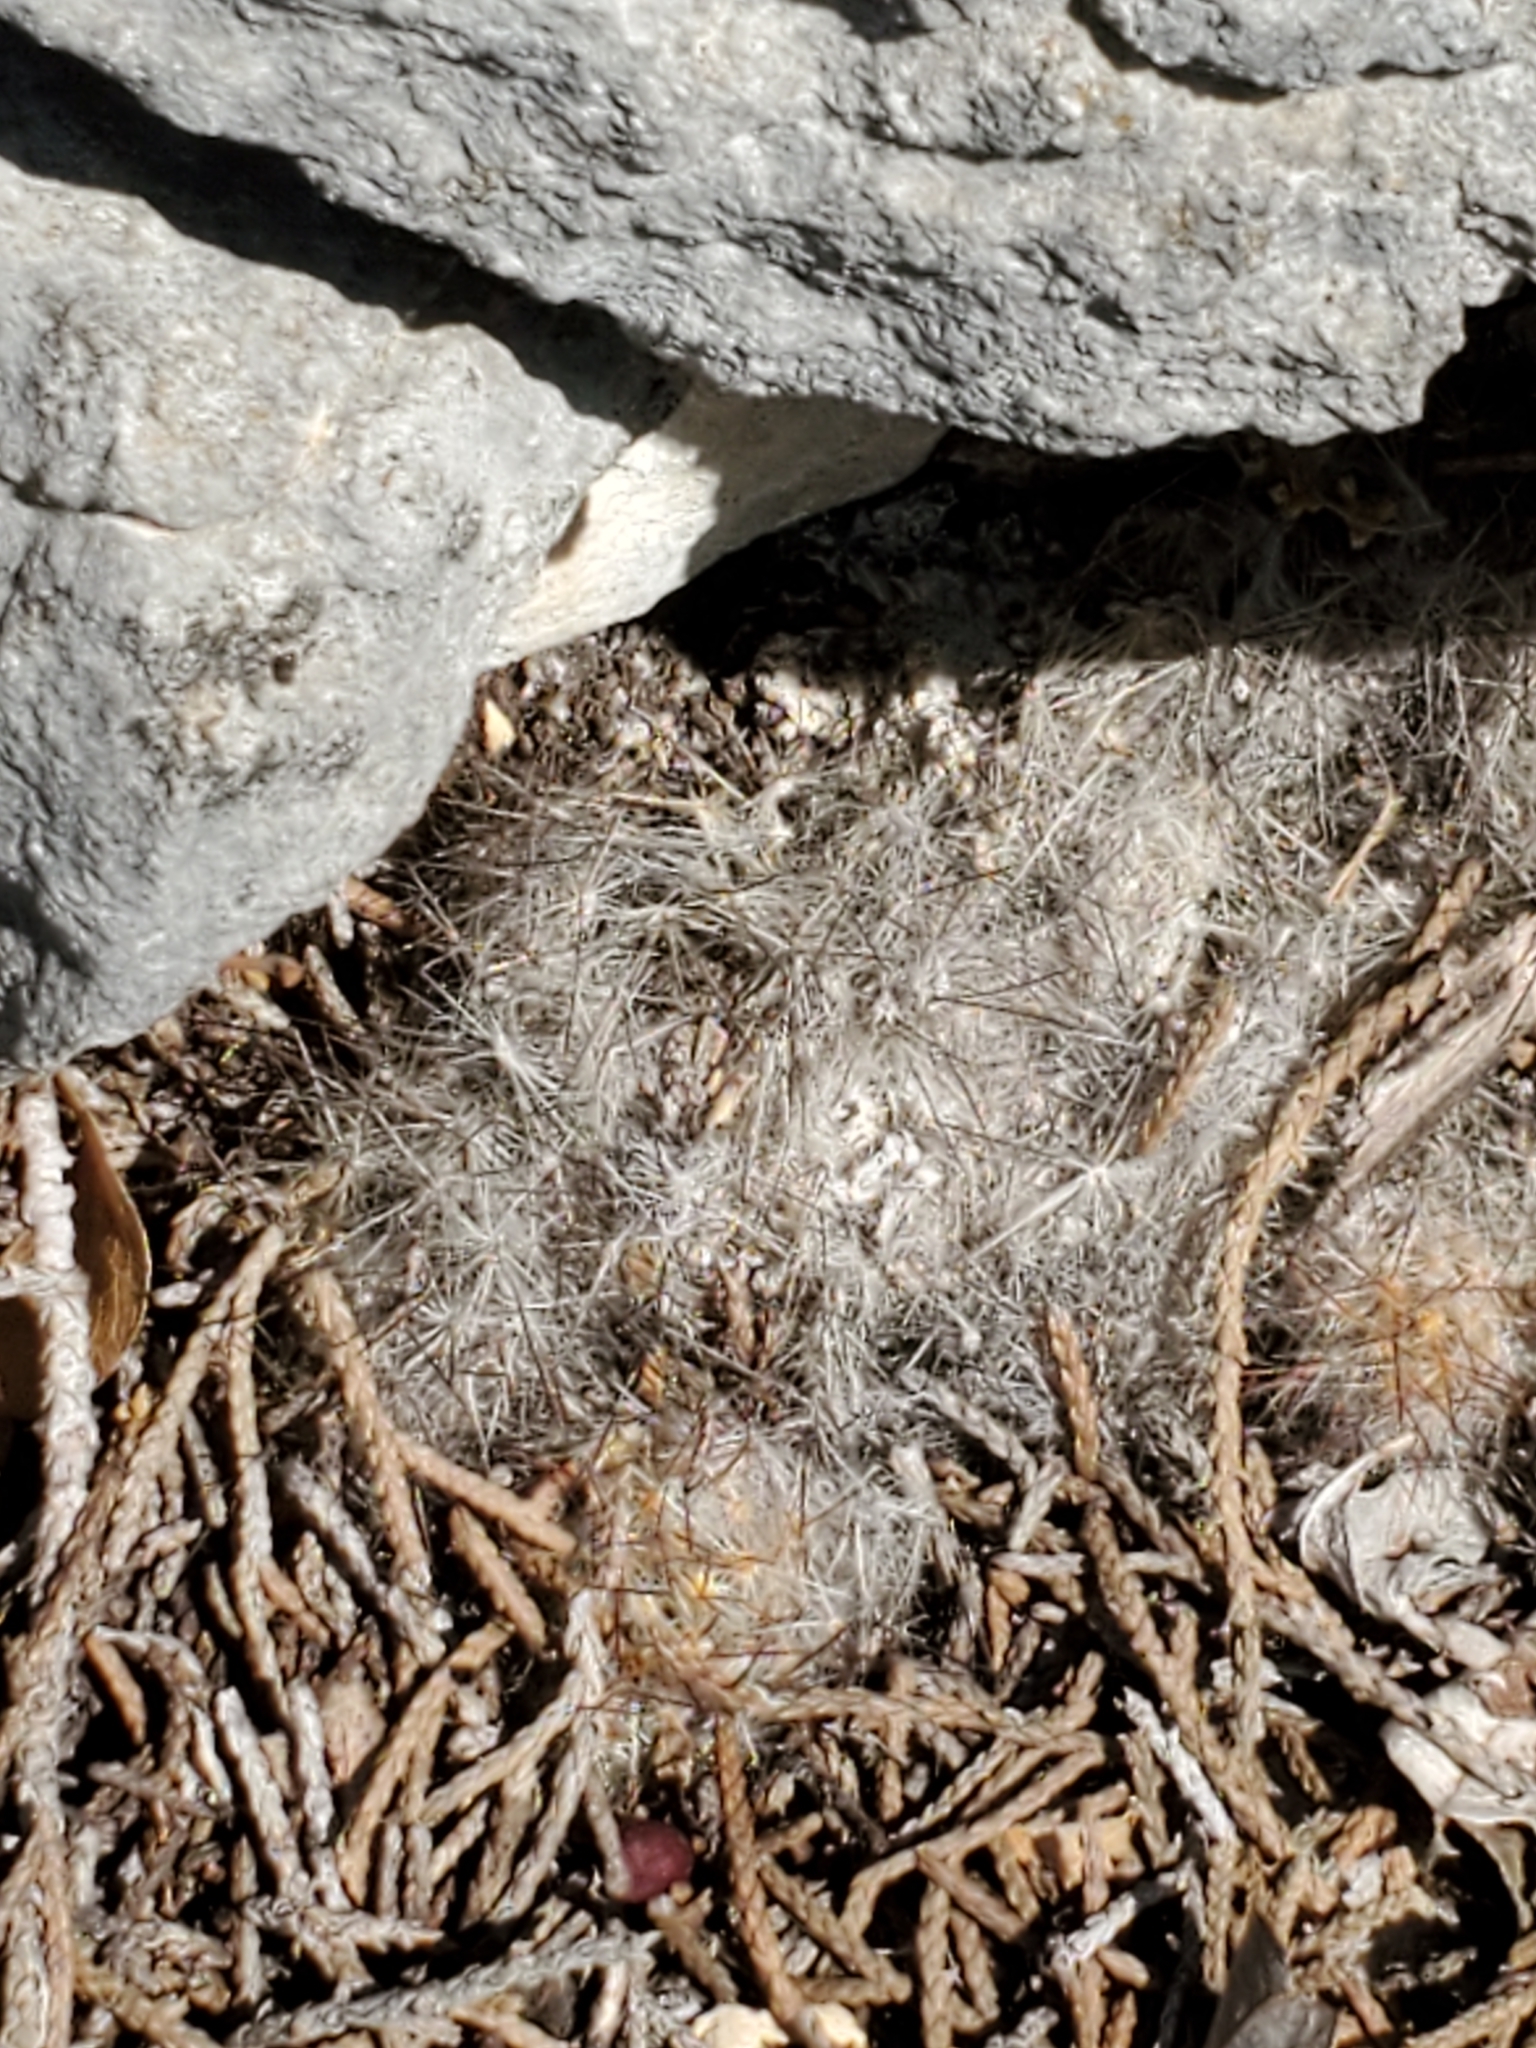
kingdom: Plantae
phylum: Tracheophyta
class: Magnoliopsida
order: Caryophyllales
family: Cactaceae
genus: Mammillaria
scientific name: Mammillaria prolifera
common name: Texas nipple cactus
